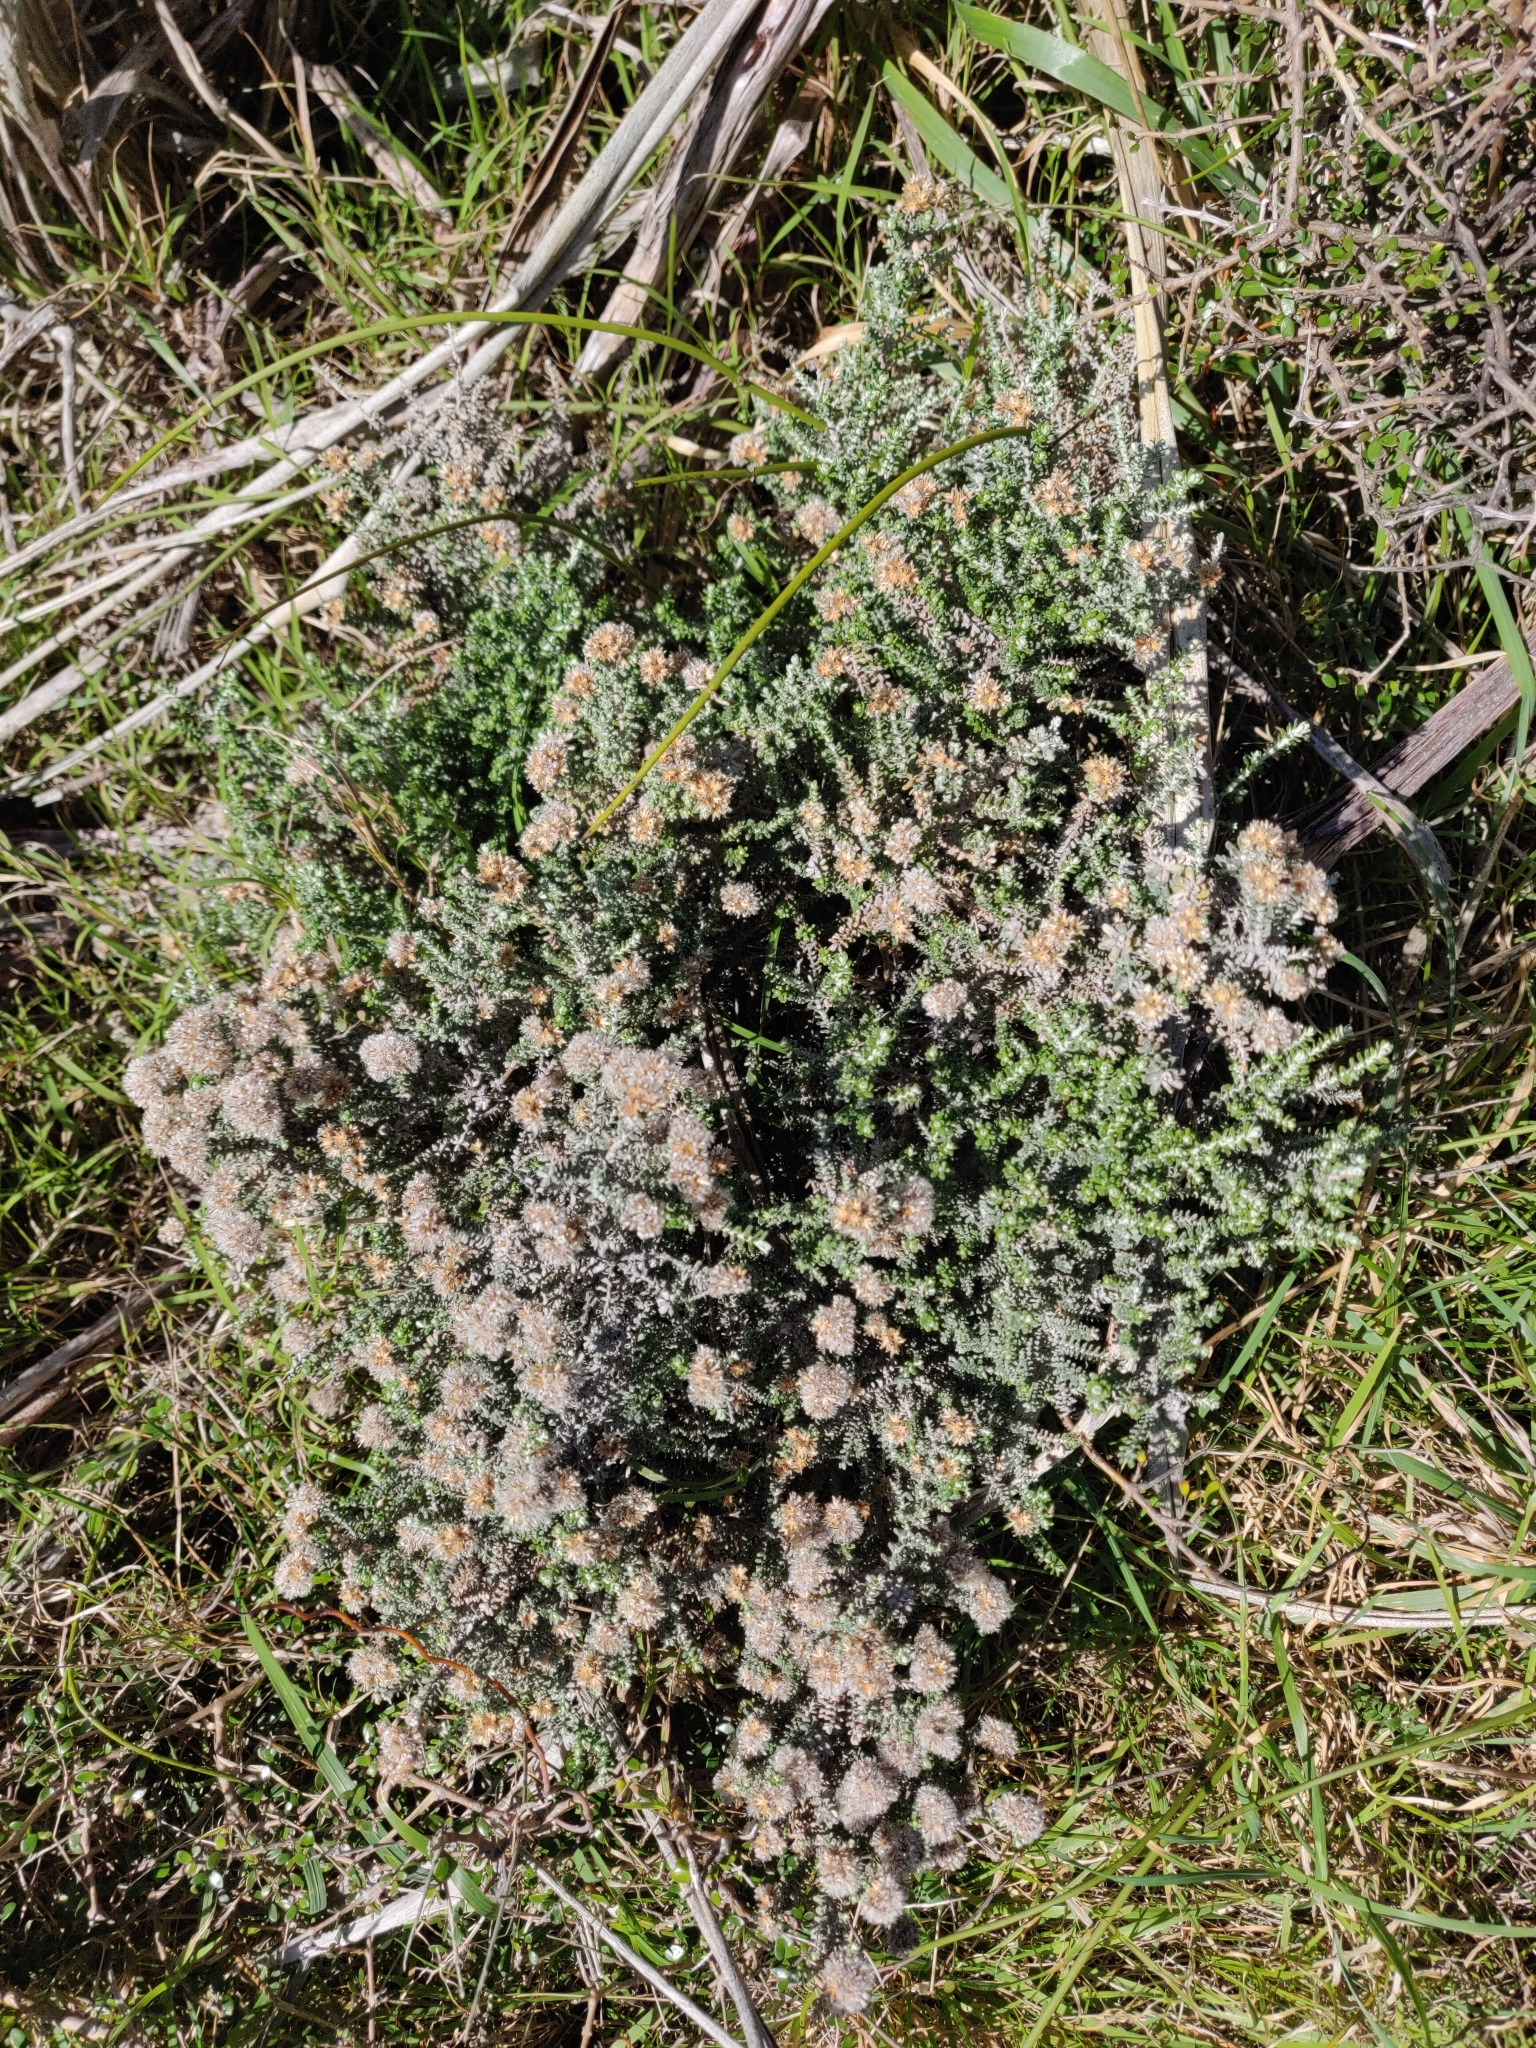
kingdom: Plantae
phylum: Tracheophyta
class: Magnoliopsida
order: Asterales
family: Asteraceae
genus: Ozothamnus
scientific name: Ozothamnus leptophyllus
